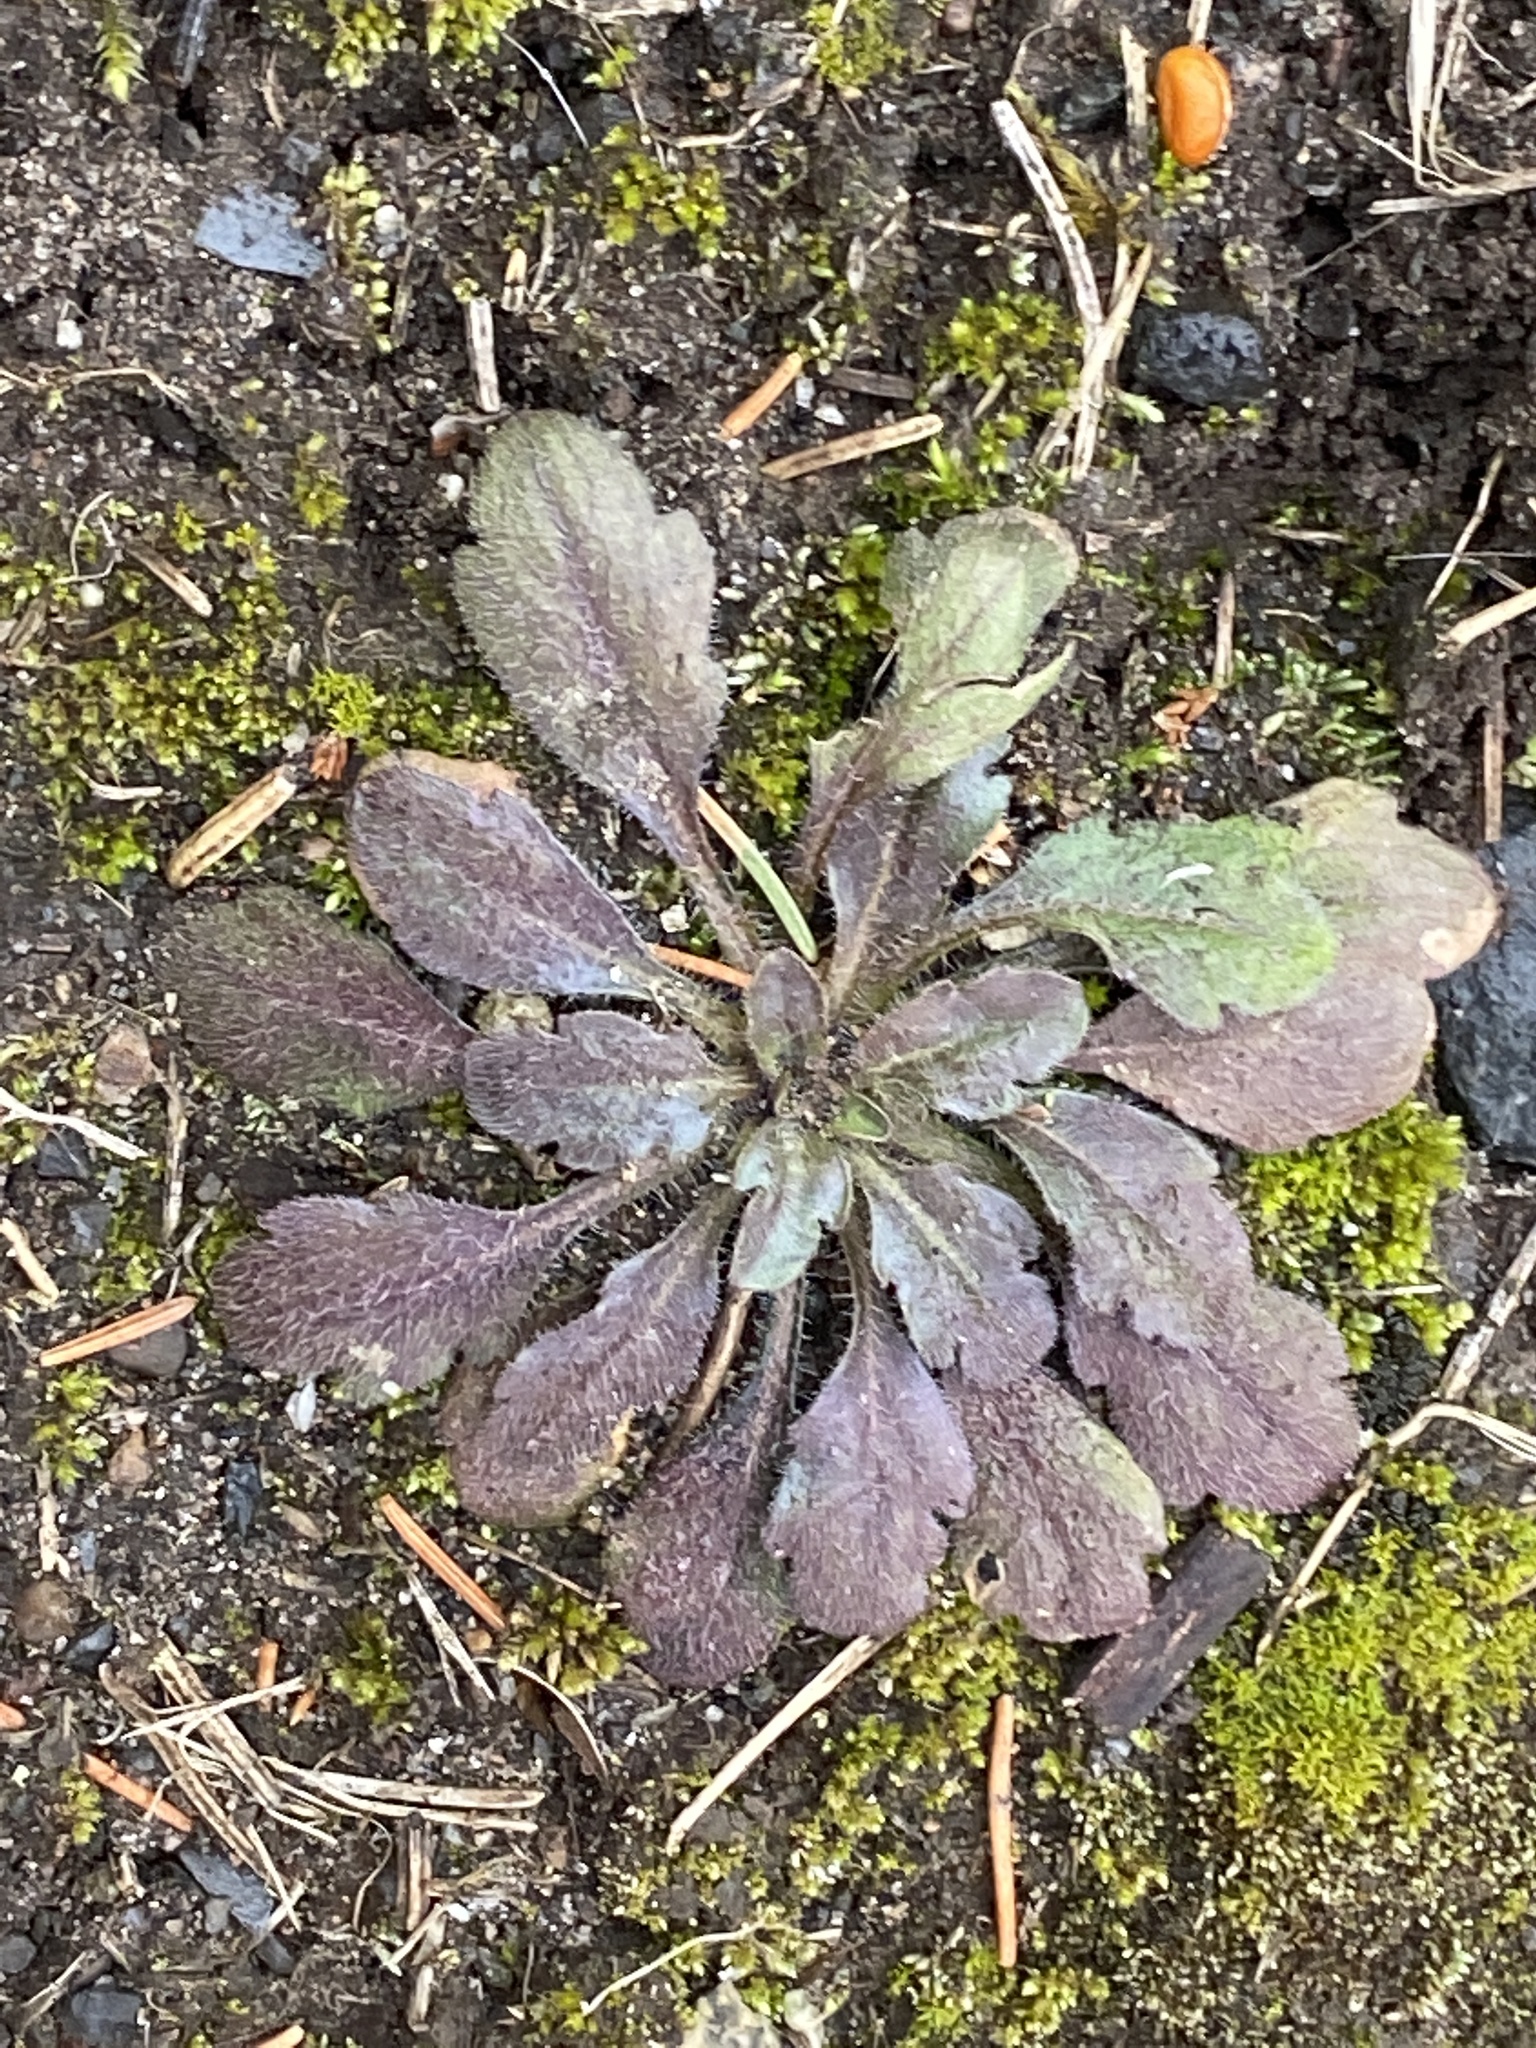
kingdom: Plantae
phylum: Tracheophyta
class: Magnoliopsida
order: Asterales
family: Asteraceae
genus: Erigeron
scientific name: Erigeron canadensis
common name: Canadian fleabane
